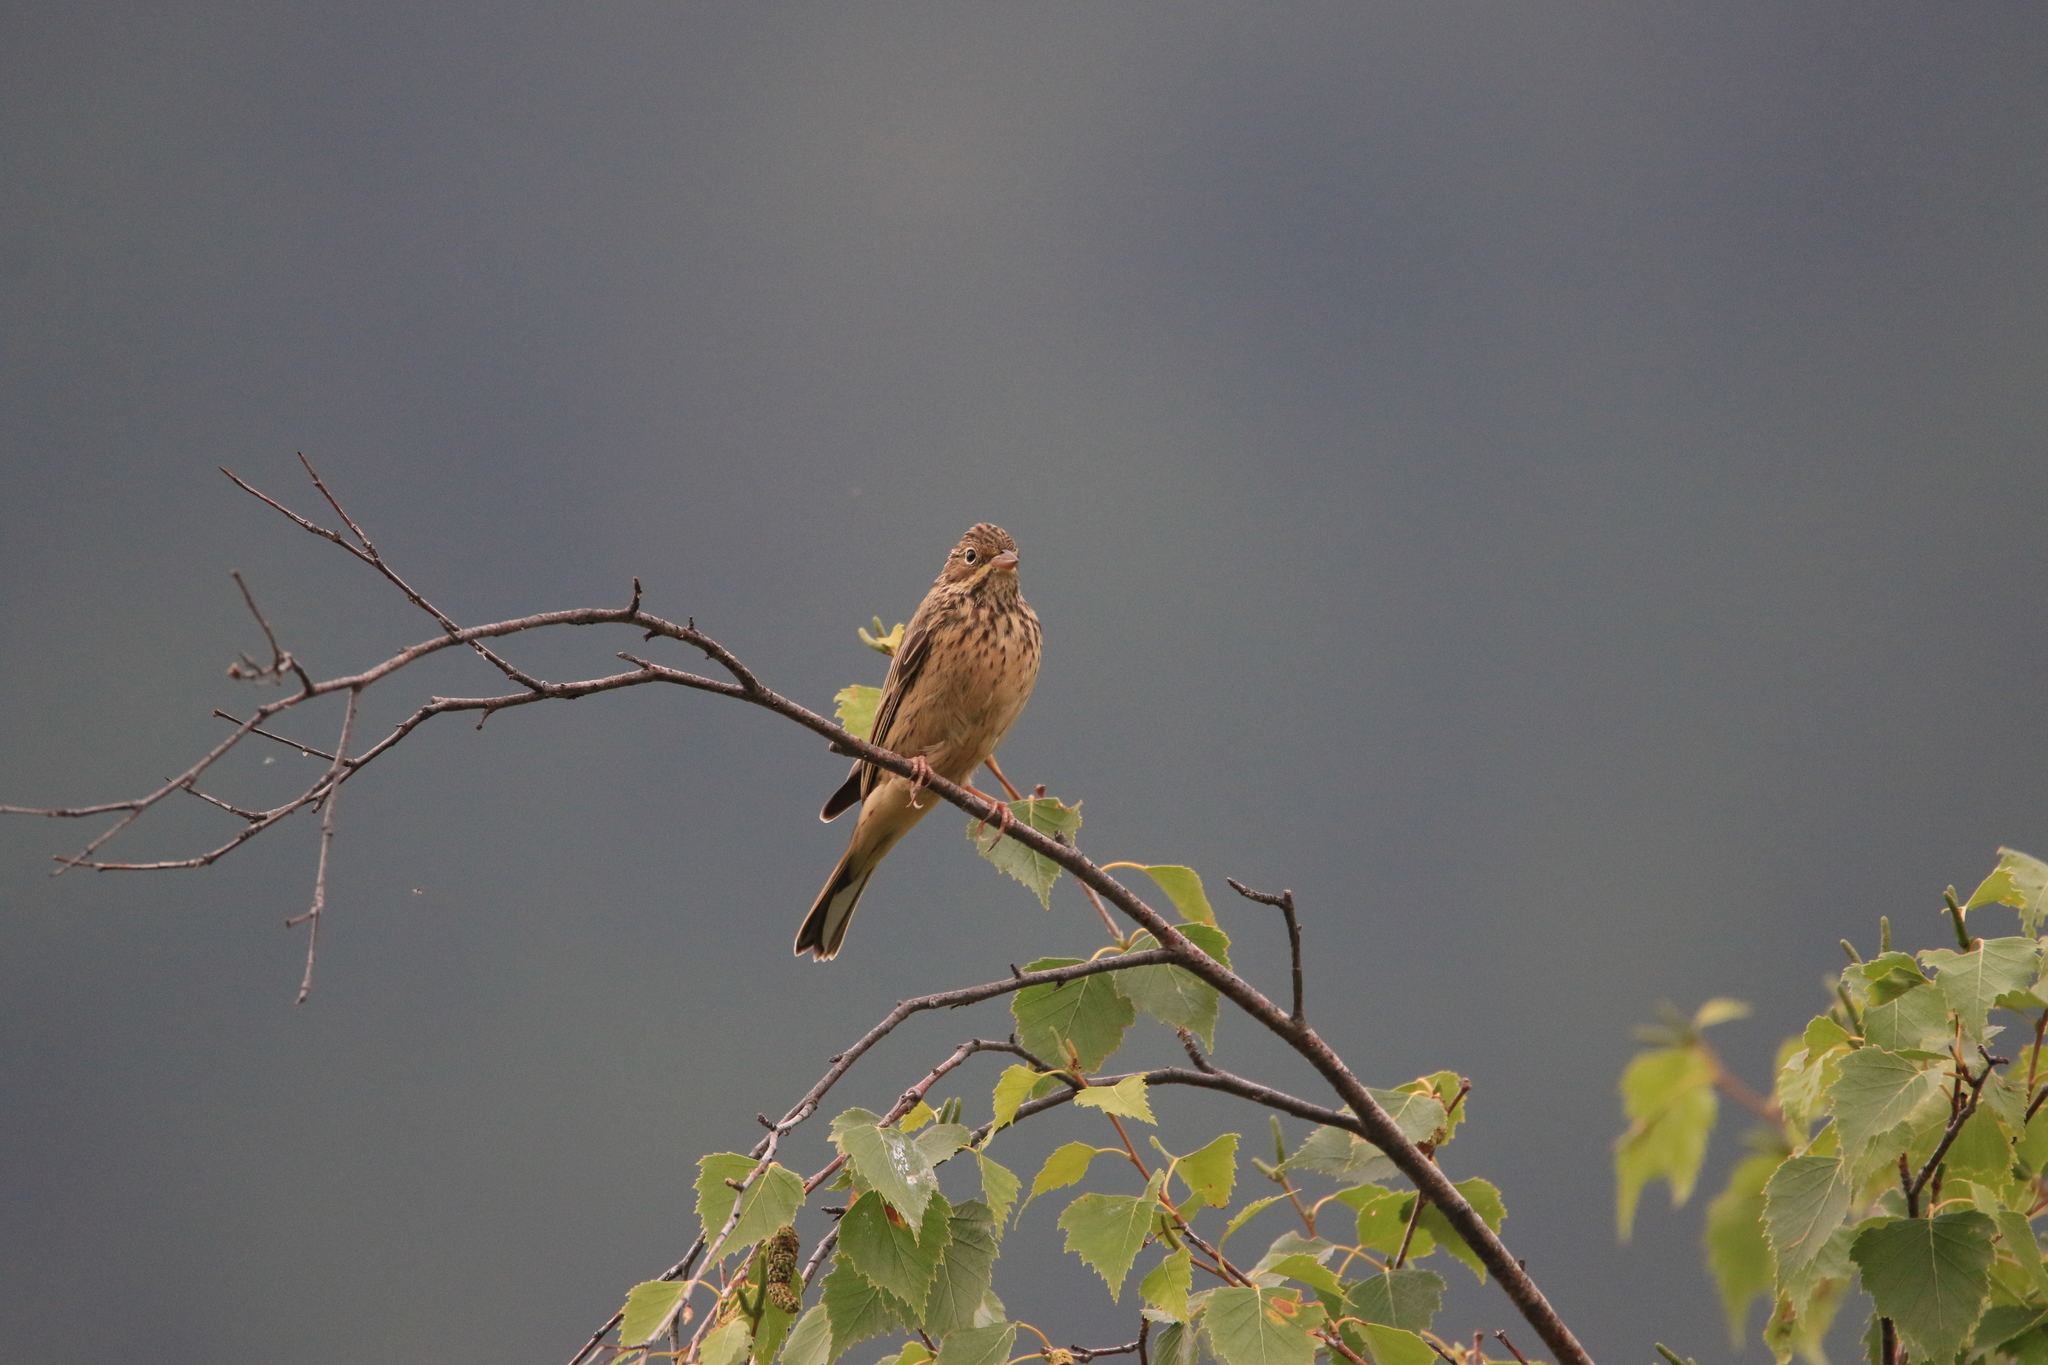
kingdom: Animalia
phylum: Chordata
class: Aves
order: Passeriformes
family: Emberizidae
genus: Emberiza
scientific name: Emberiza hortulana
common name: Ortolan bunting
